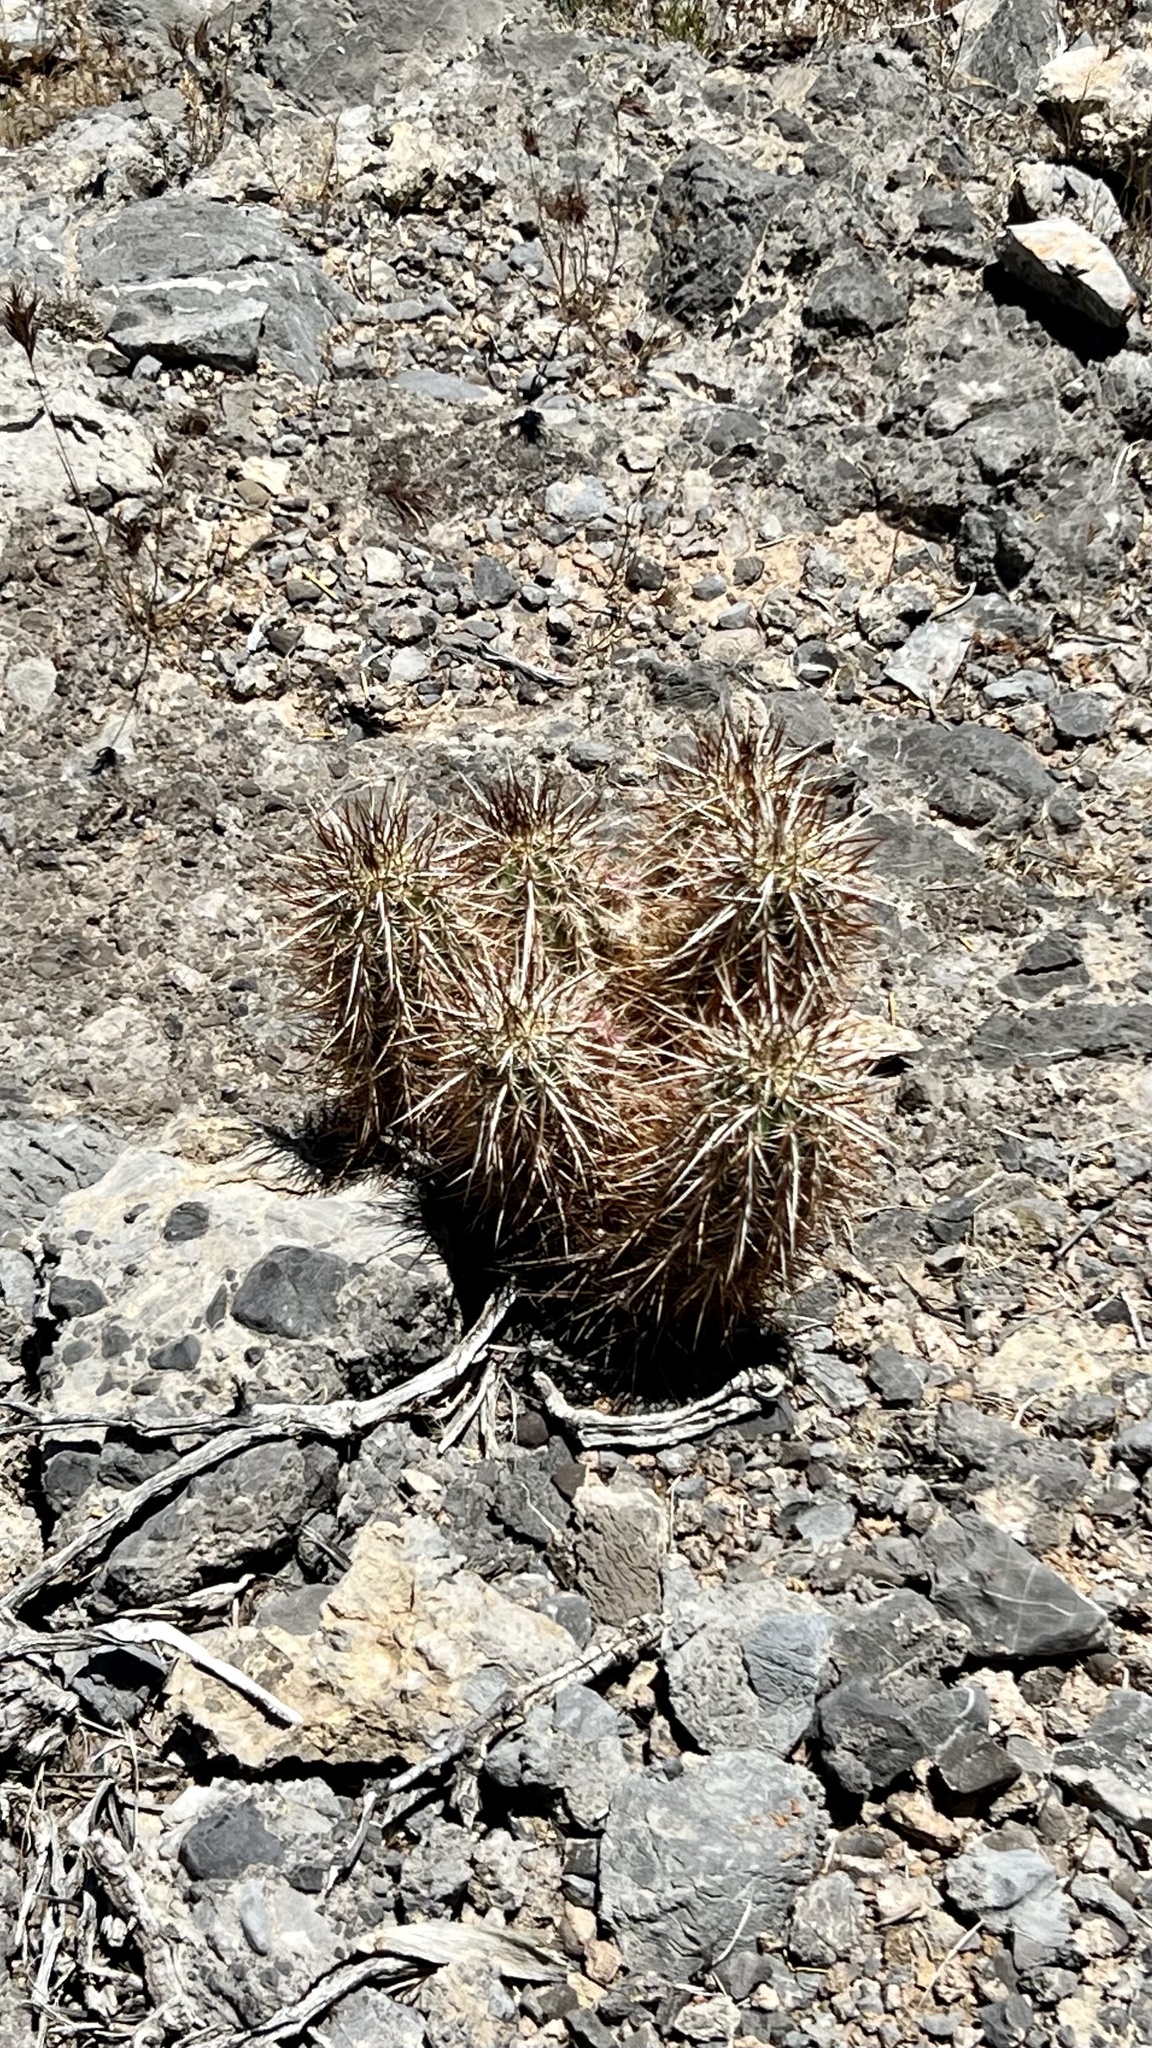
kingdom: Plantae
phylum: Tracheophyta
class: Magnoliopsida
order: Caryophyllales
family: Cactaceae
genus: Echinocereus
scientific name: Echinocereus engelmannii
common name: Engelmann's hedgehog cactus
